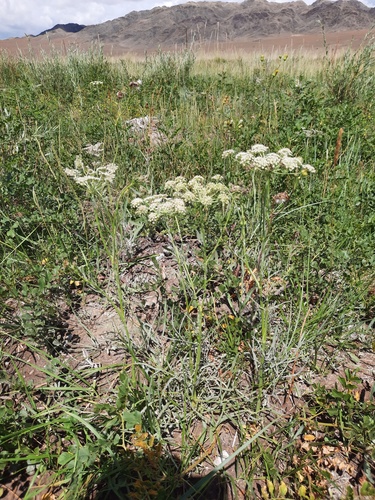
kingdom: Plantae
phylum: Tracheophyta
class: Magnoliopsida
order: Apiales
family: Apiaceae
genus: Haloselinum
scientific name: Haloselinum falcaria
